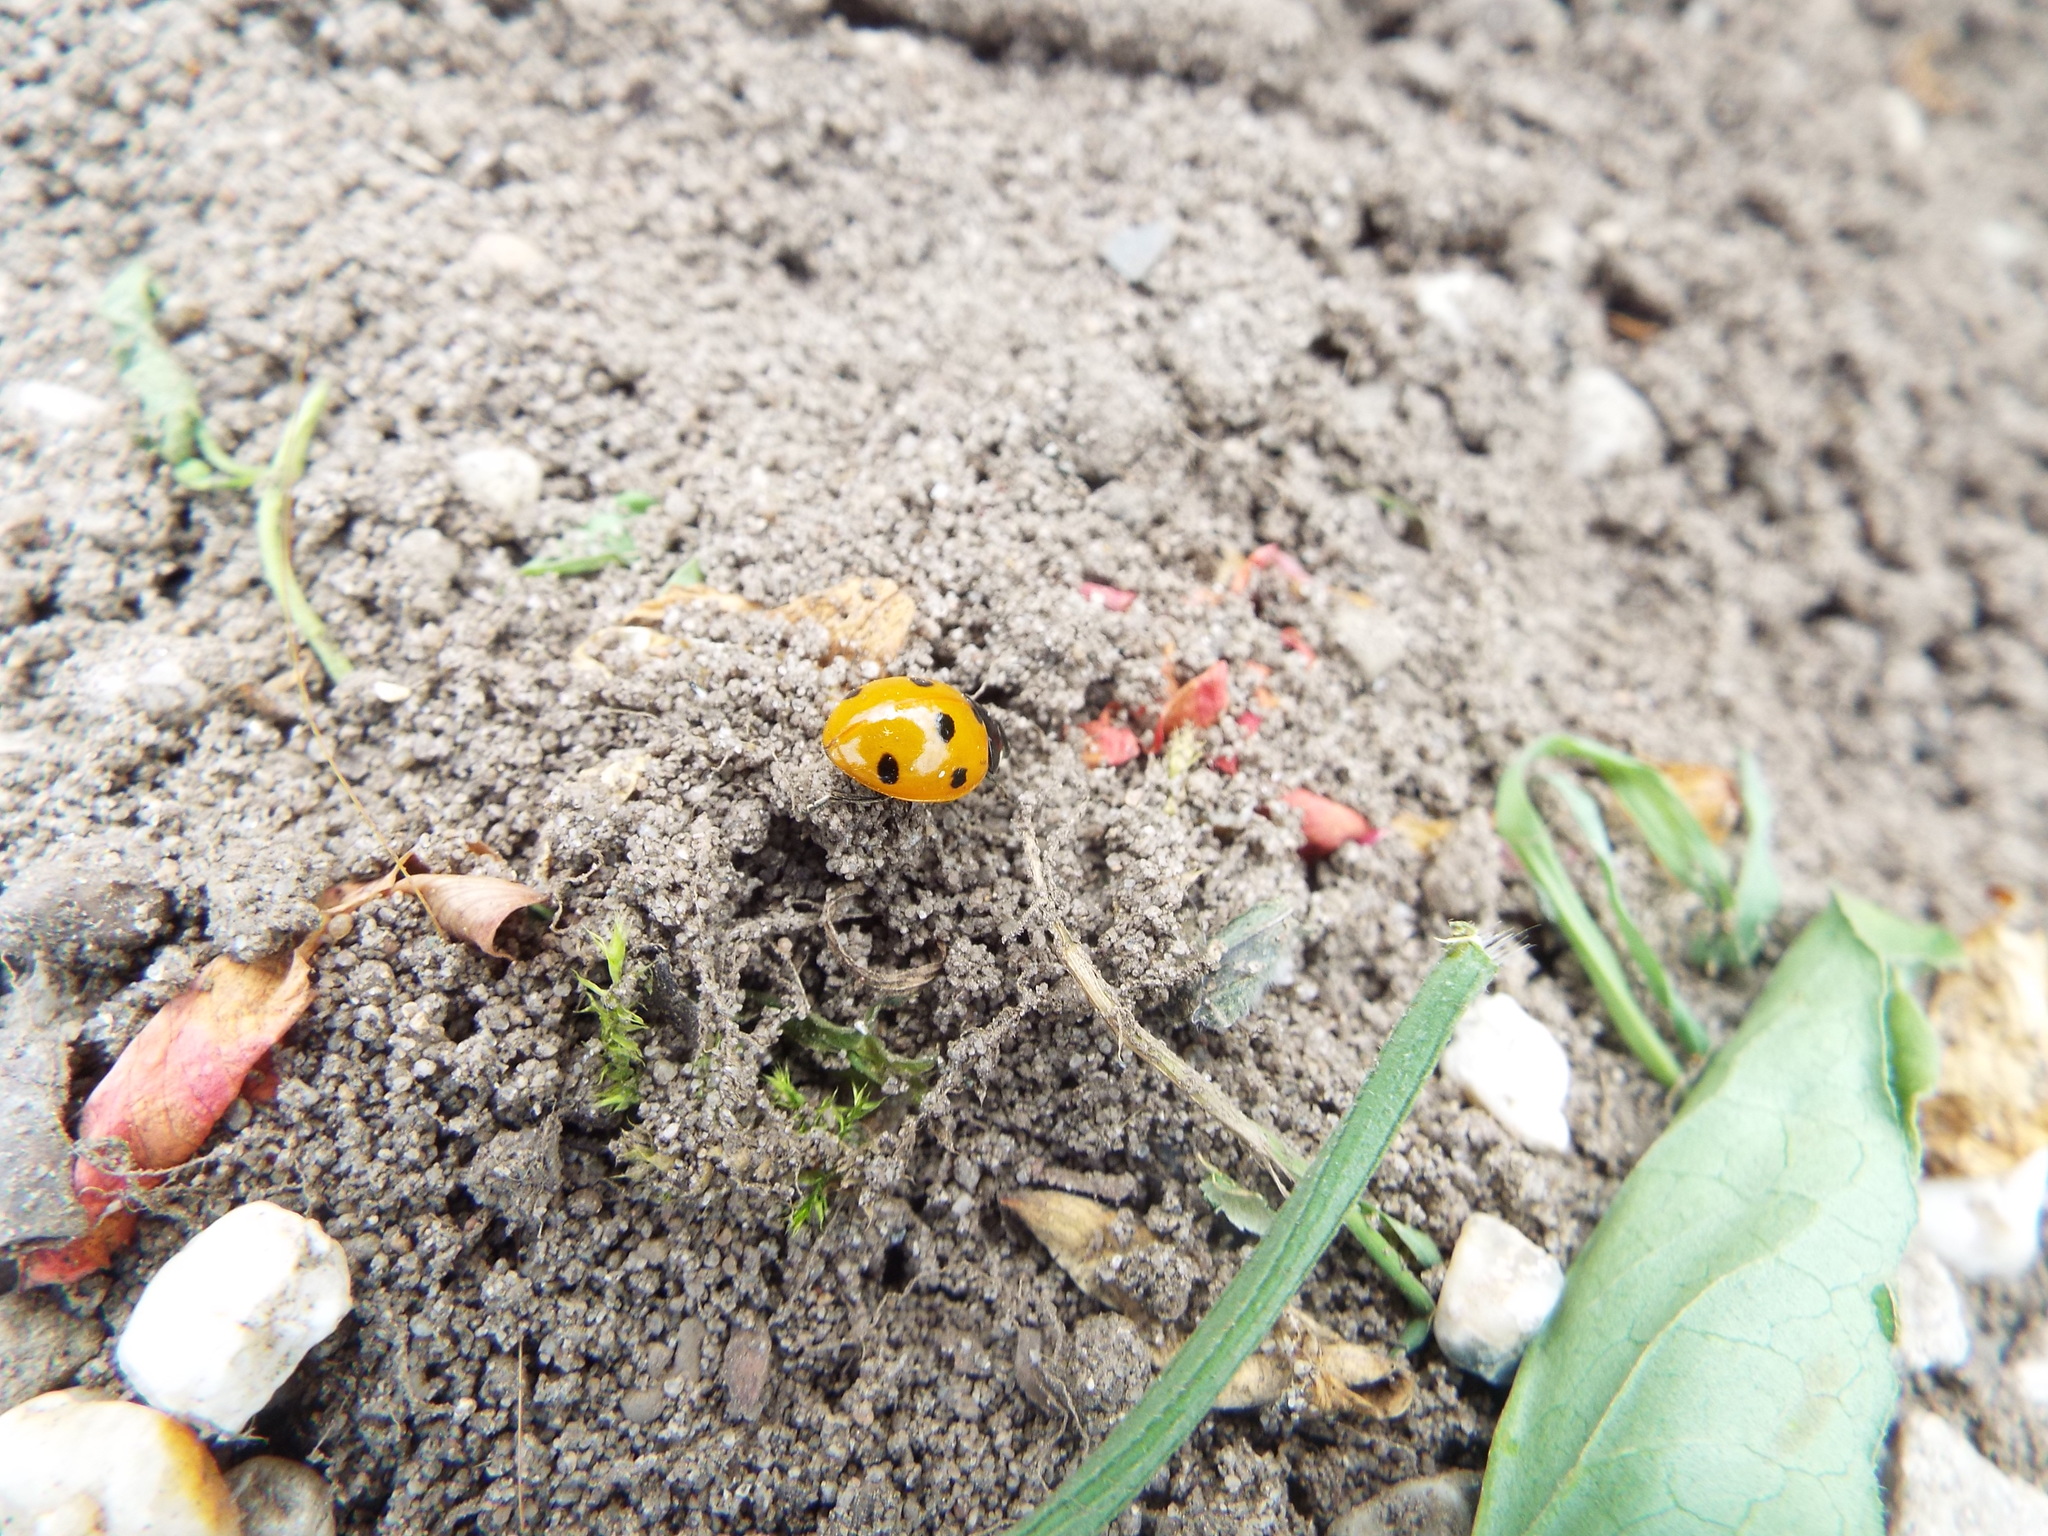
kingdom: Animalia
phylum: Arthropoda
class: Insecta
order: Coleoptera
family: Coccinellidae
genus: Coccinella
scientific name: Coccinella septempunctata
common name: Sevenspotted lady beetle
